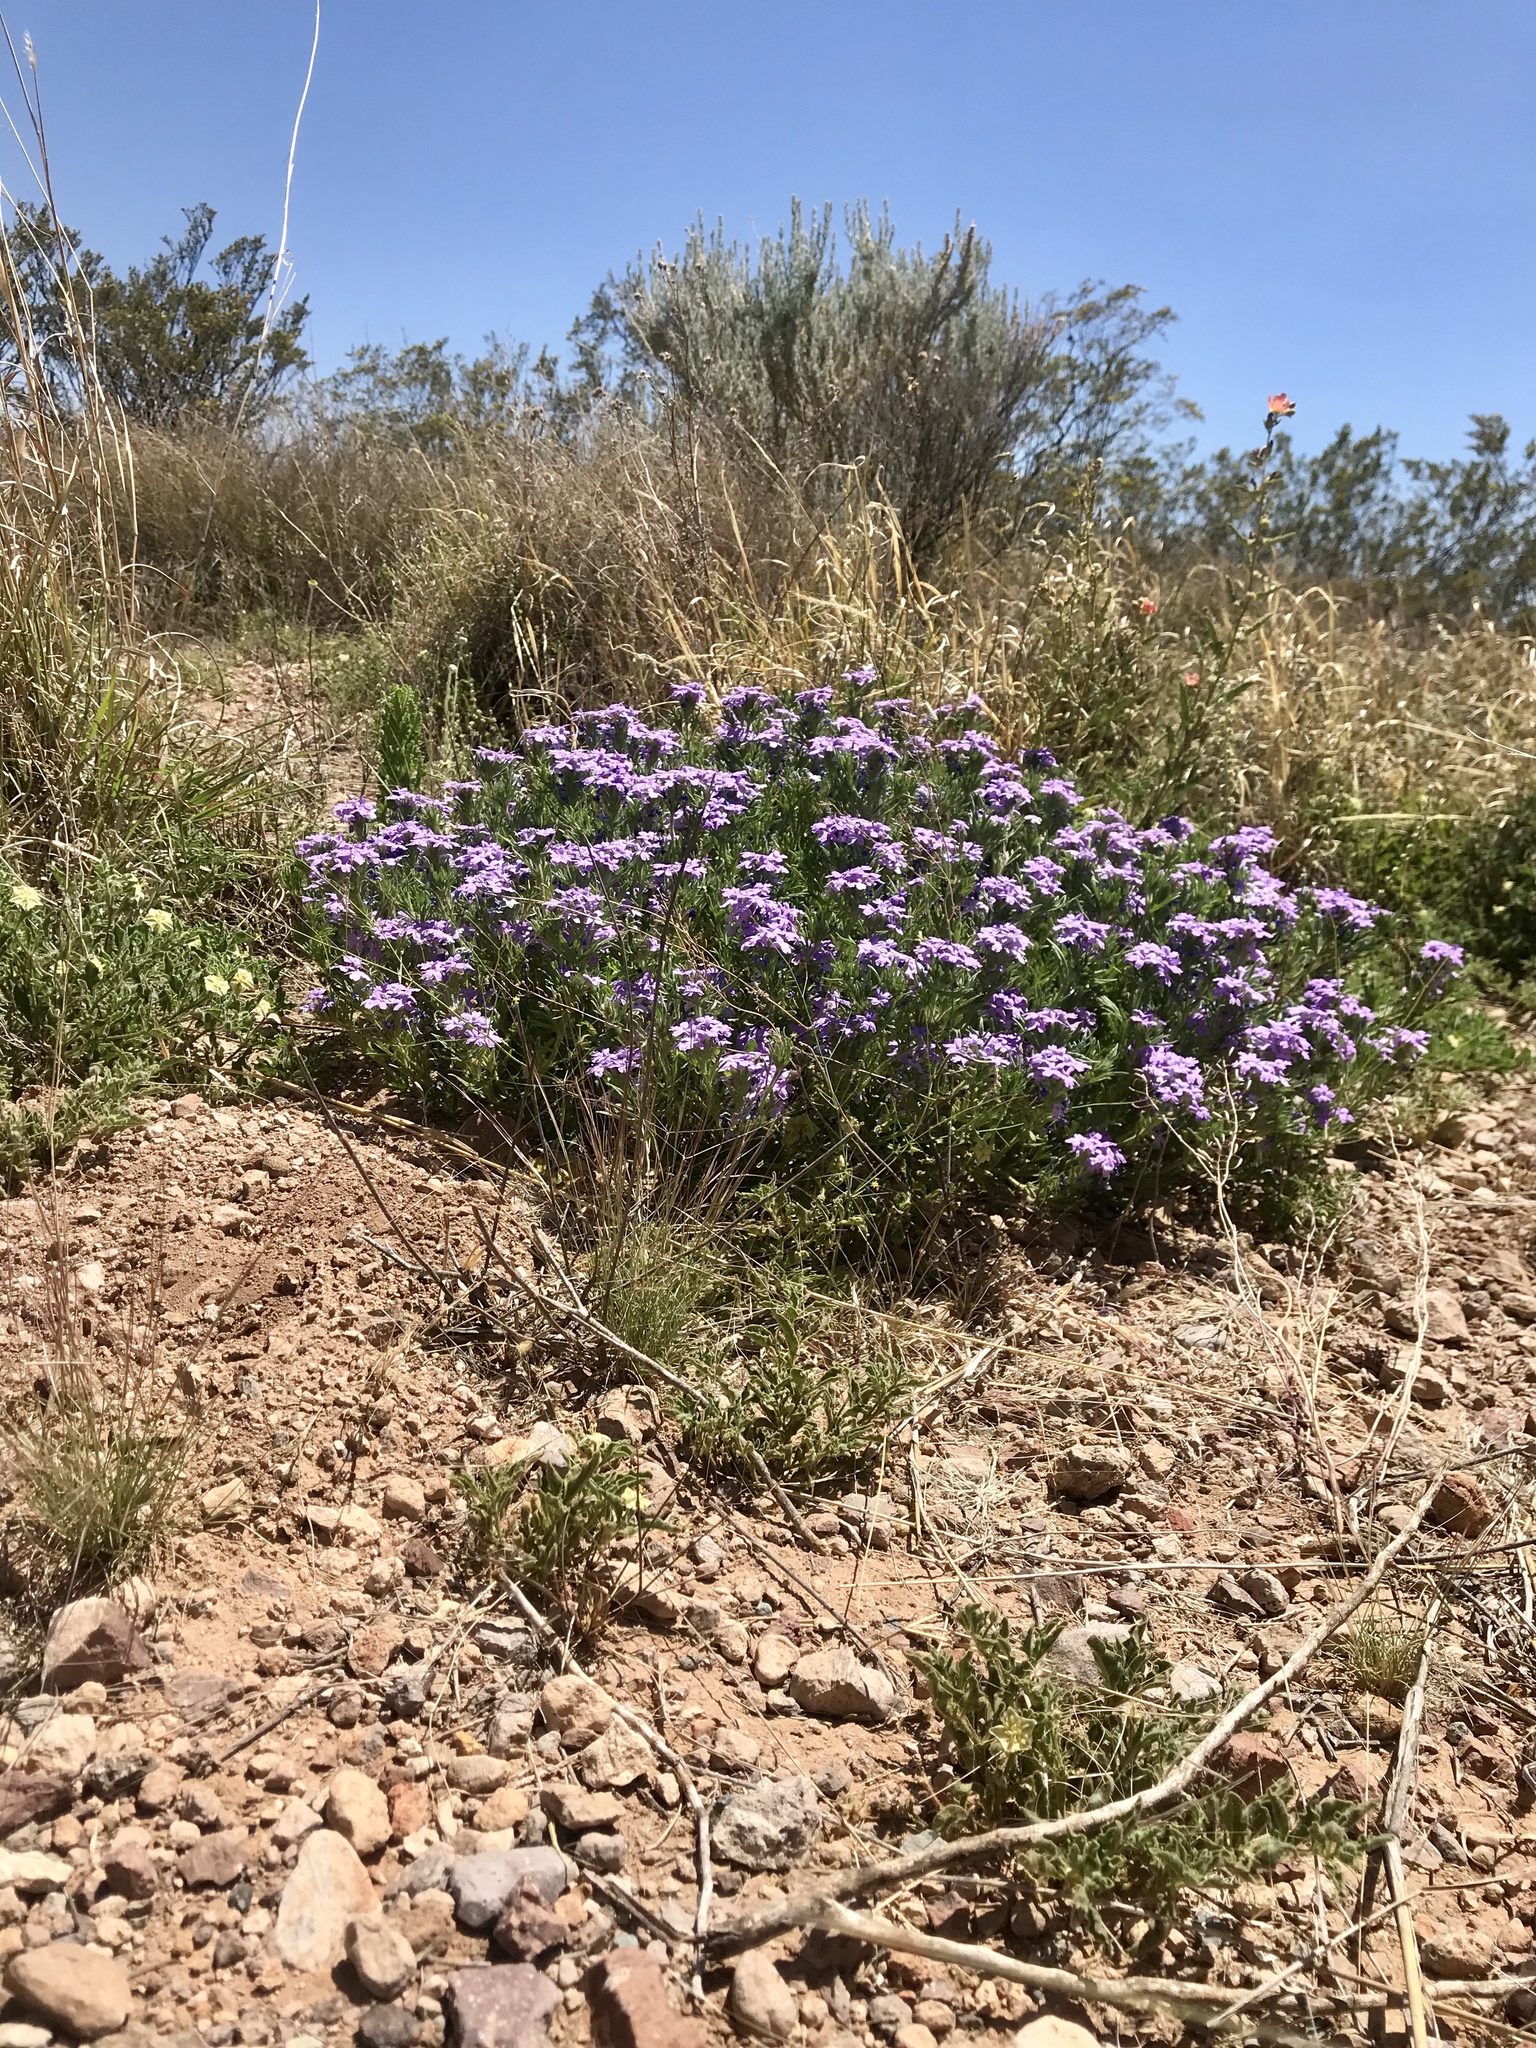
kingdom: Plantae
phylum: Tracheophyta
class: Magnoliopsida
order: Lamiales
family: Verbenaceae
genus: Verbena
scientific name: Verbena bipinnatifida
